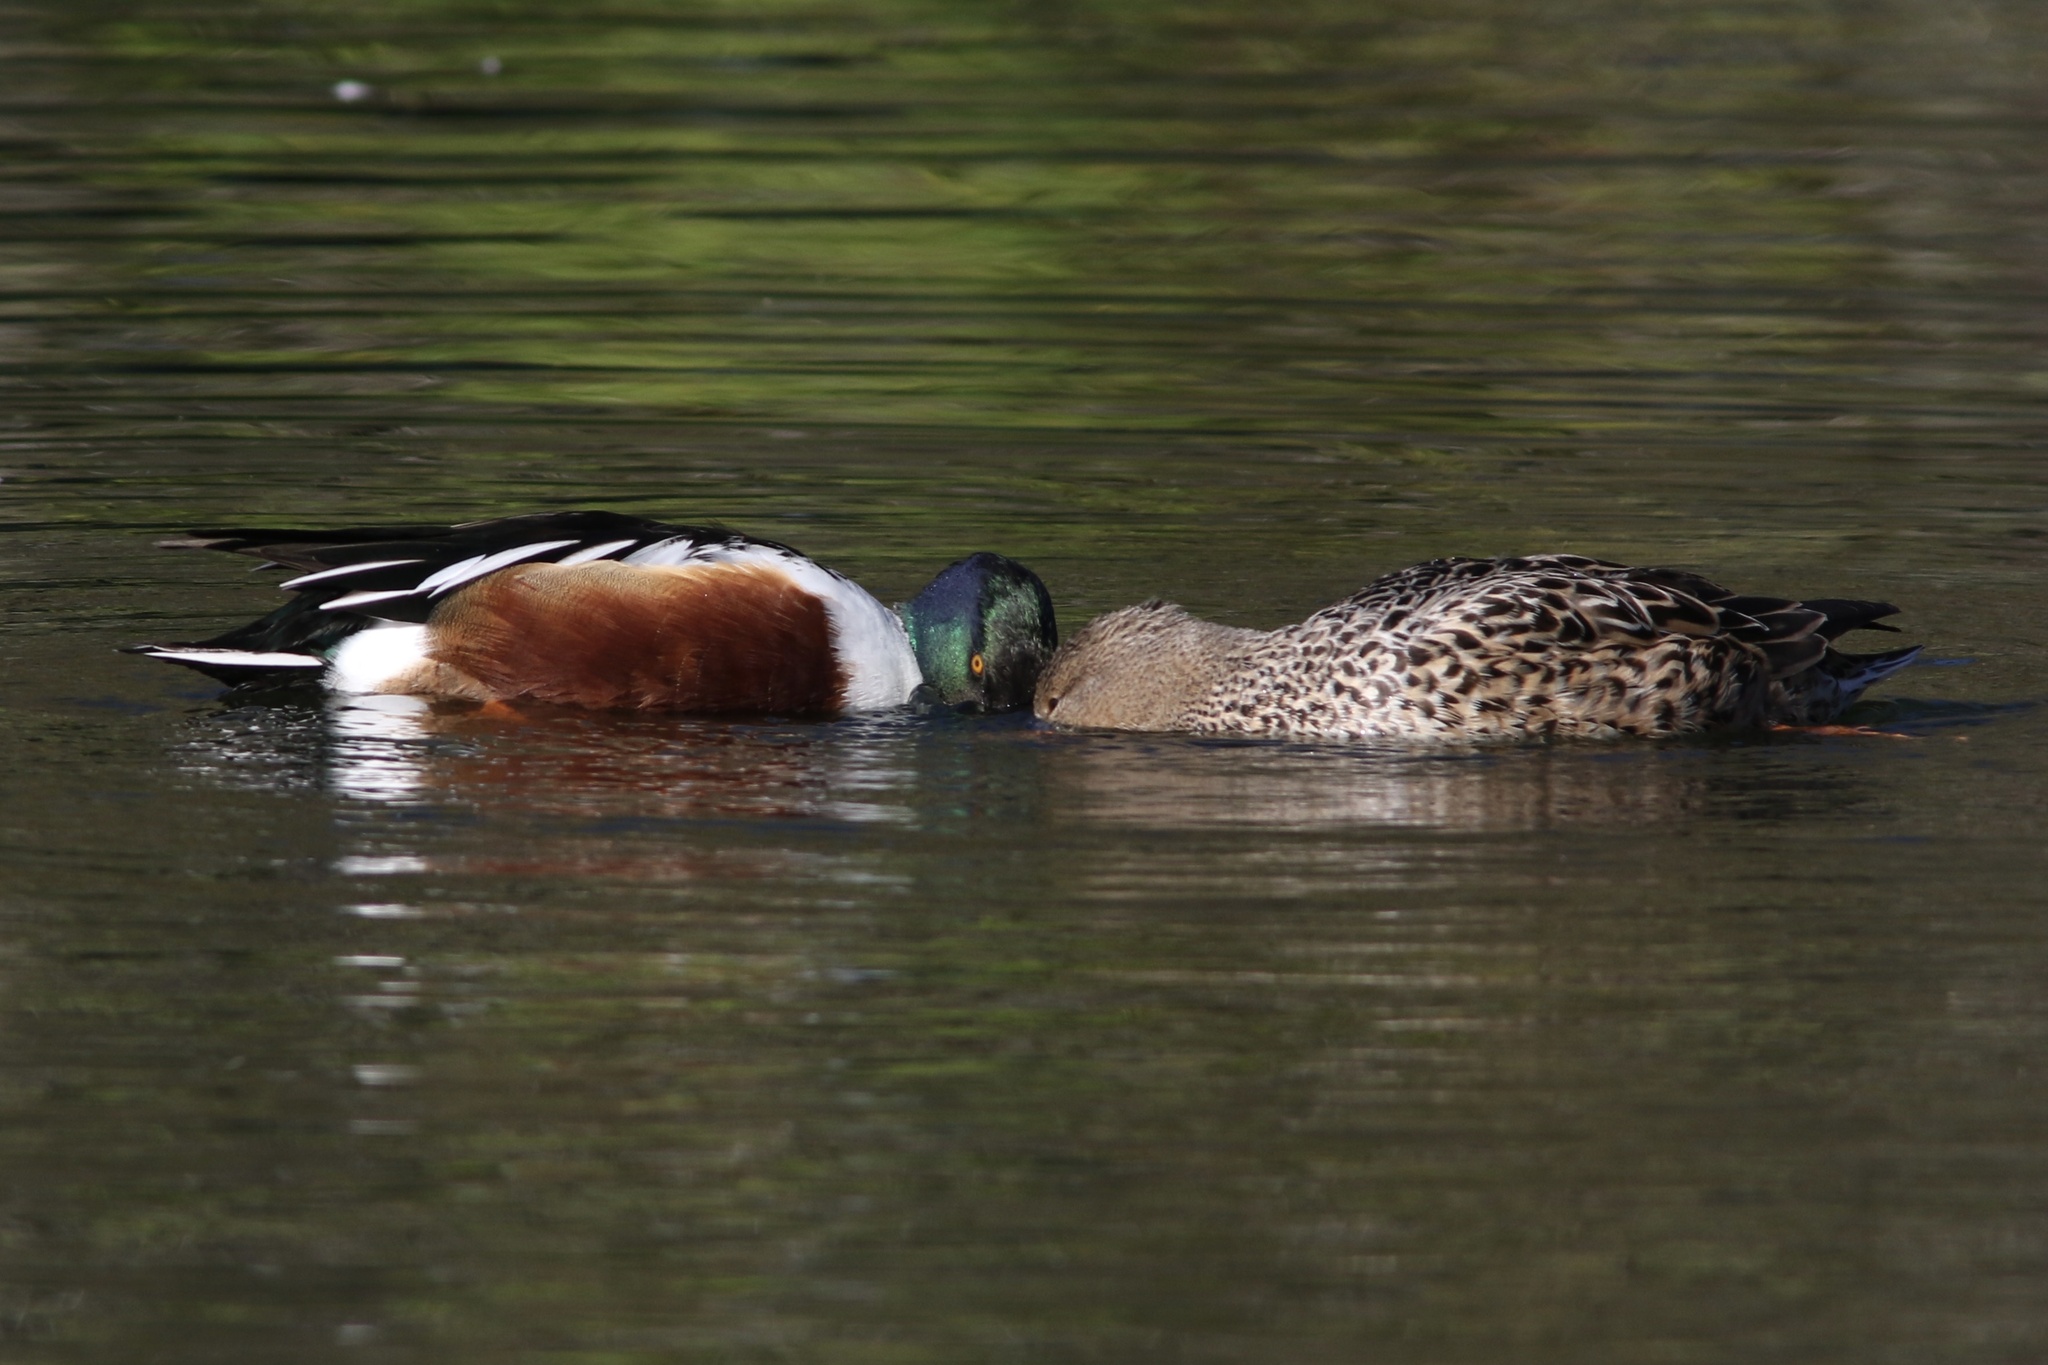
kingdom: Animalia
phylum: Chordata
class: Aves
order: Anseriformes
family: Anatidae
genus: Spatula
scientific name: Spatula clypeata
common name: Northern shoveler
